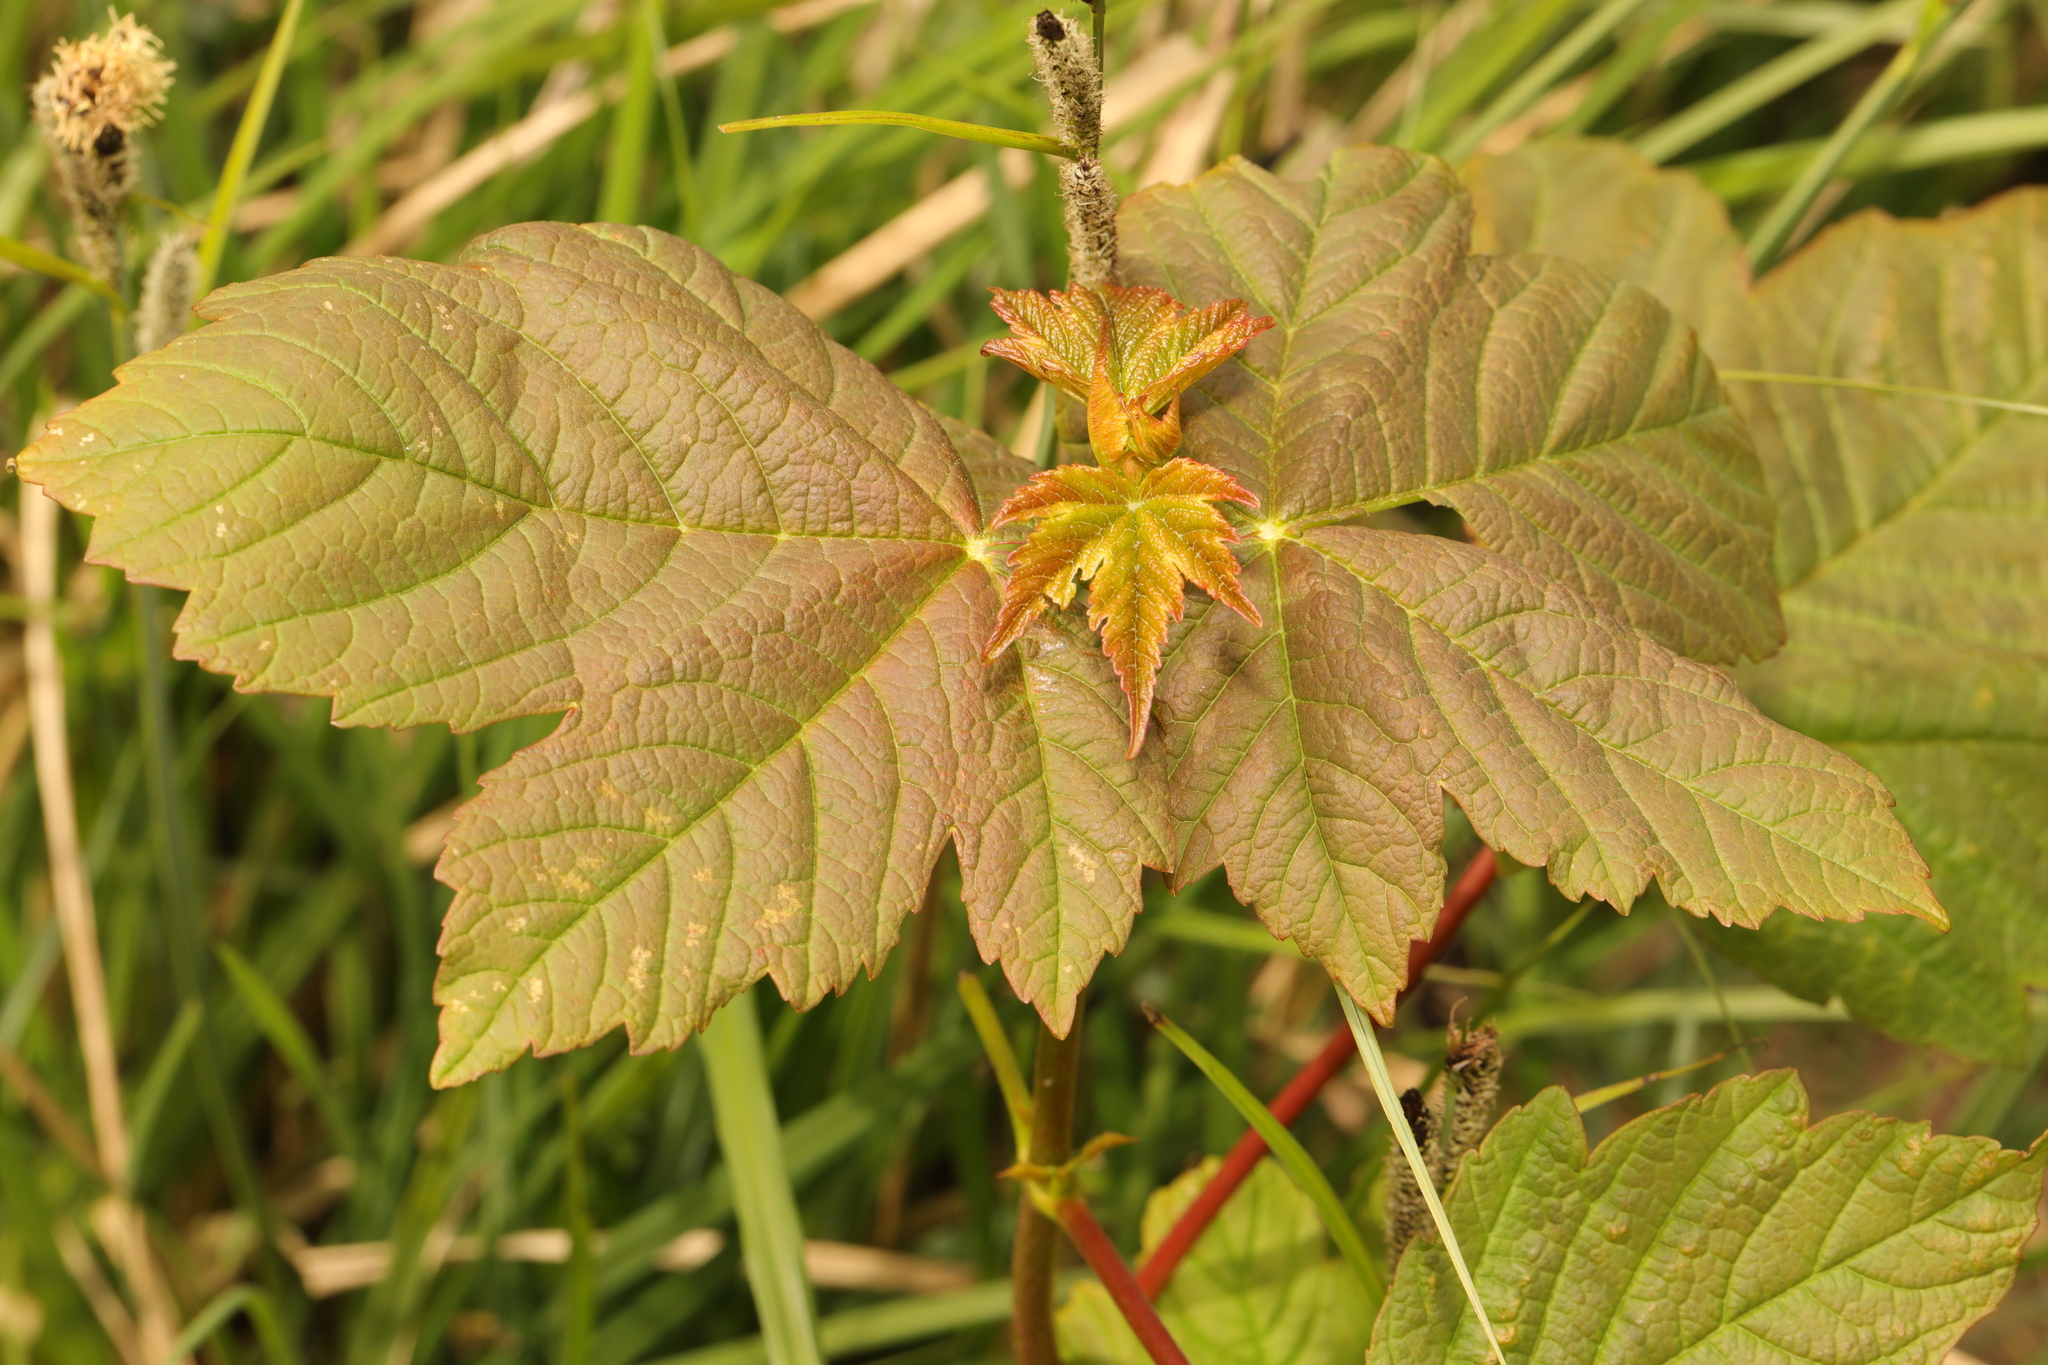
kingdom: Plantae
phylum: Tracheophyta
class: Magnoliopsida
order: Sapindales
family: Sapindaceae
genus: Acer
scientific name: Acer pseudoplatanus
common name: Sycamore
